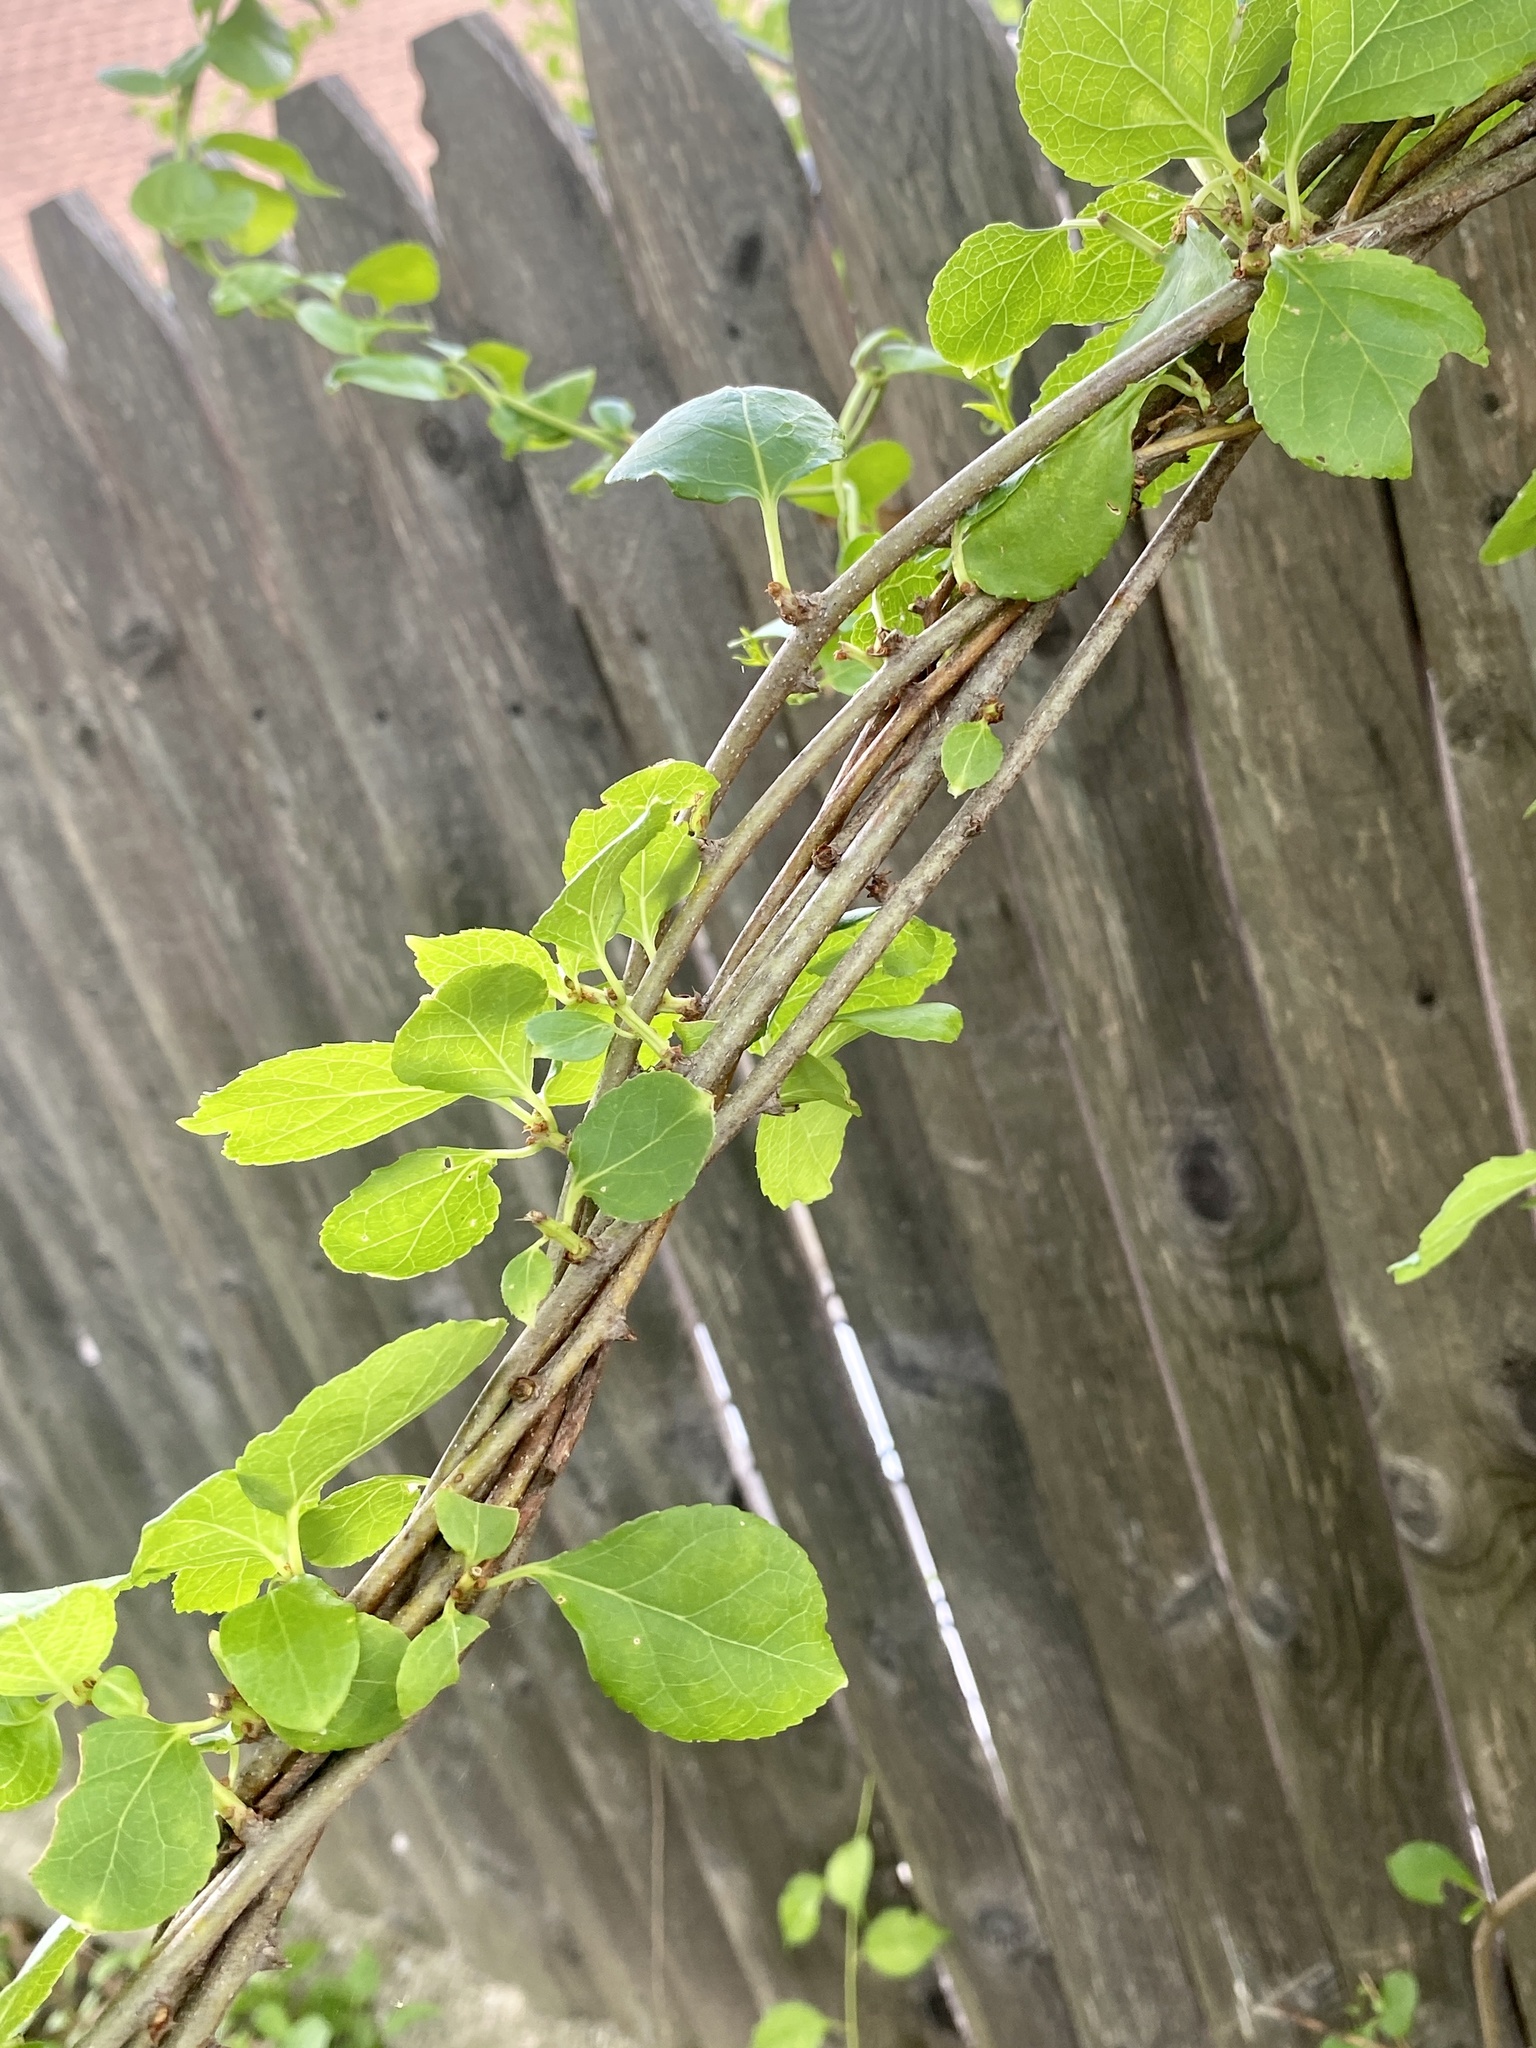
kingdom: Plantae
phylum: Tracheophyta
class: Magnoliopsida
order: Celastrales
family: Celastraceae
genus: Celastrus
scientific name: Celastrus orbiculatus
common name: Oriental bittersweet
